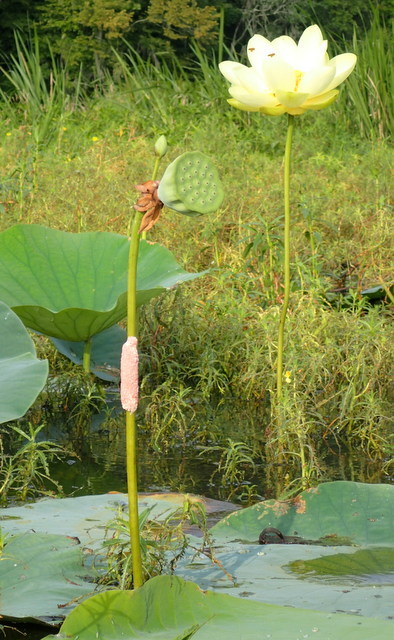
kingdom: Plantae
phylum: Tracheophyta
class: Magnoliopsida
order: Proteales
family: Nelumbonaceae
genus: Nelumbo
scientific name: Nelumbo lutea
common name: American lotus
